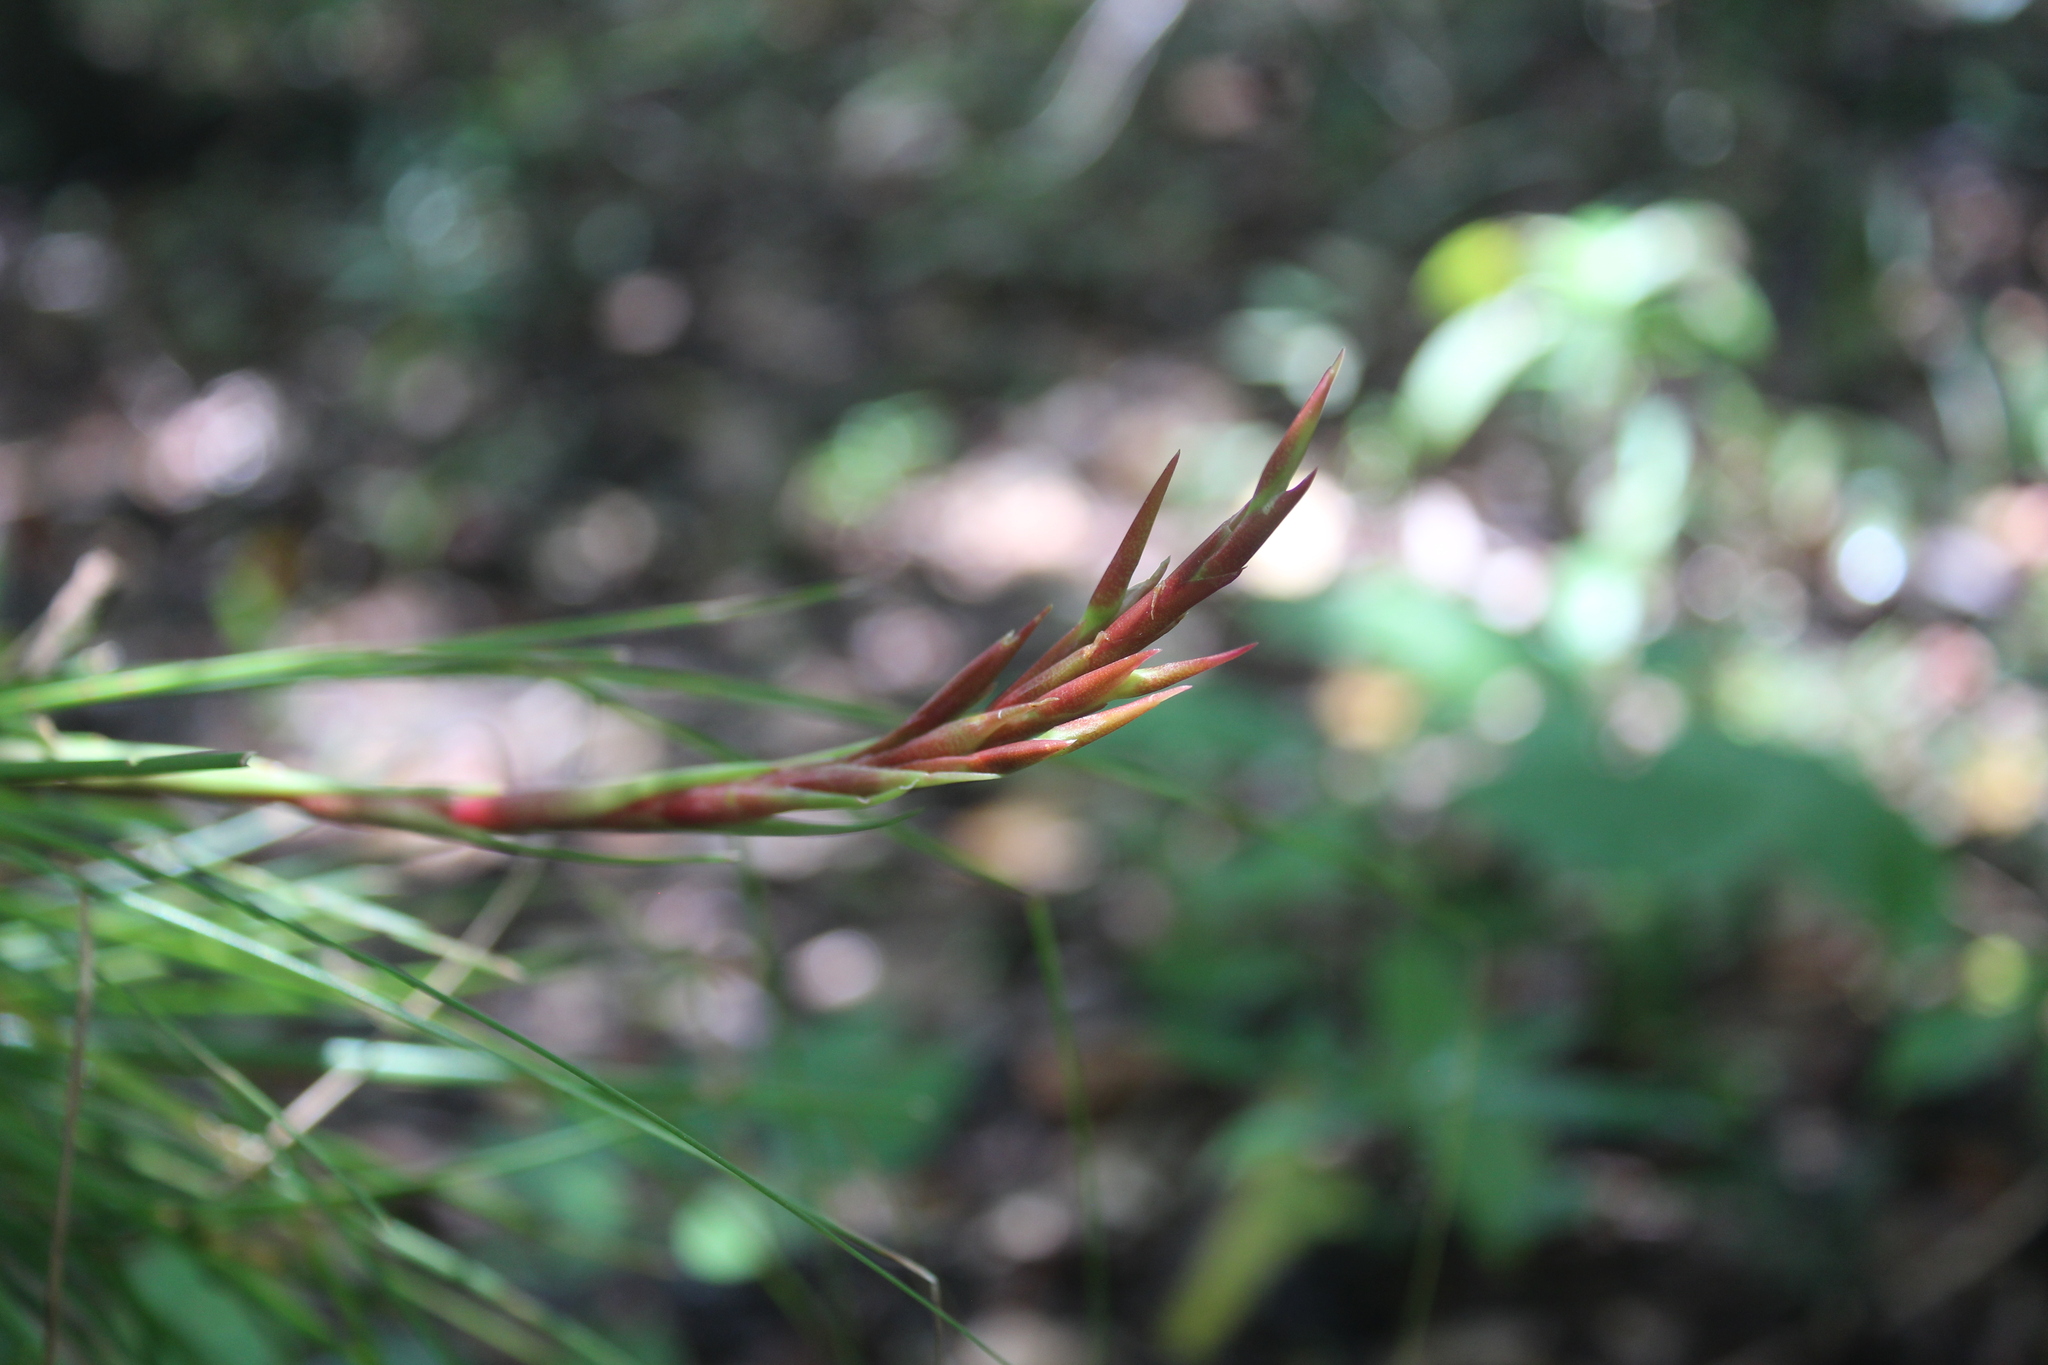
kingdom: Plantae
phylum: Tracheophyta
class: Liliopsida
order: Poales
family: Bromeliaceae
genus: Tillandsia
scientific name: Tillandsia festucoides
